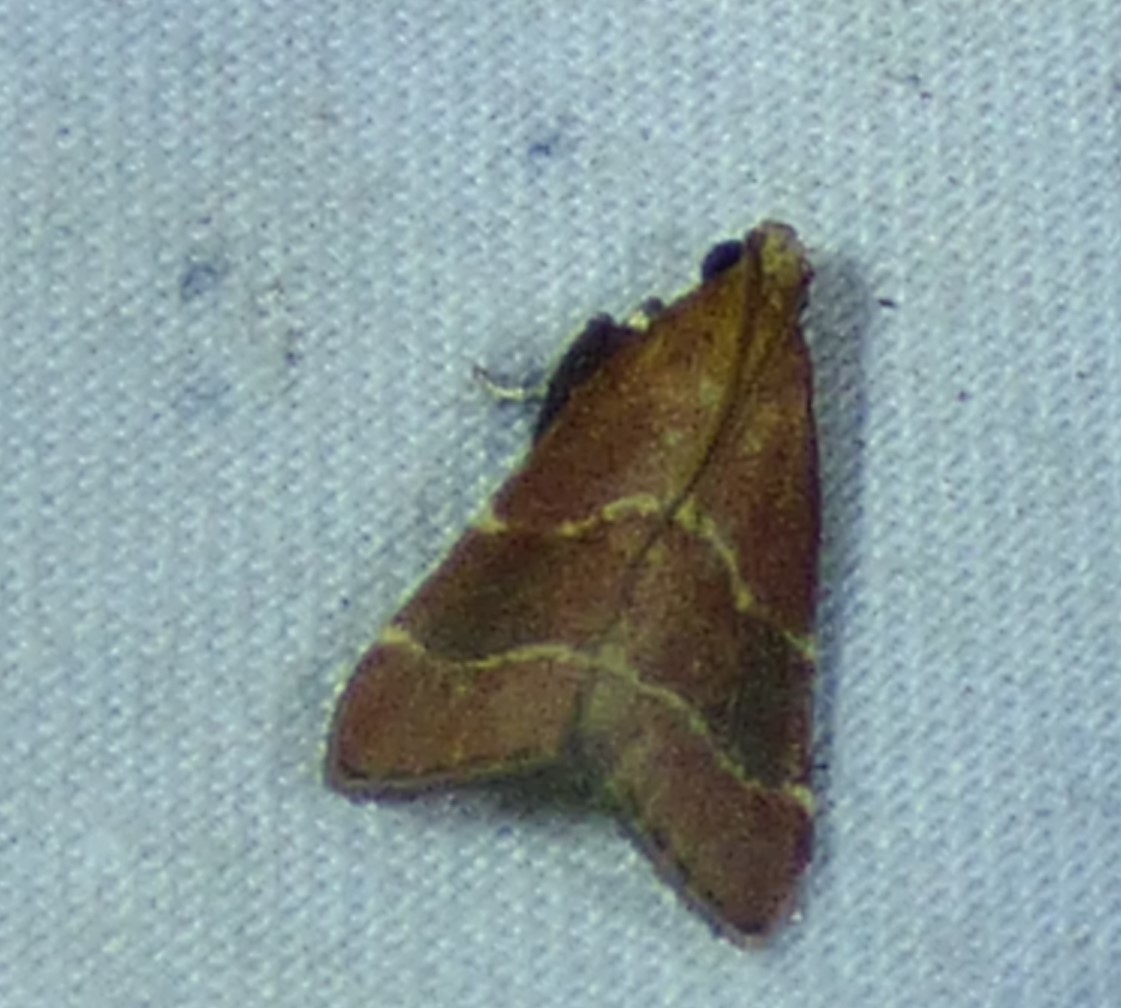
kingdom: Animalia
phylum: Arthropoda
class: Insecta
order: Lepidoptera
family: Pyralidae
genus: Arta
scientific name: Arta statalis
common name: Posturing arta moth
